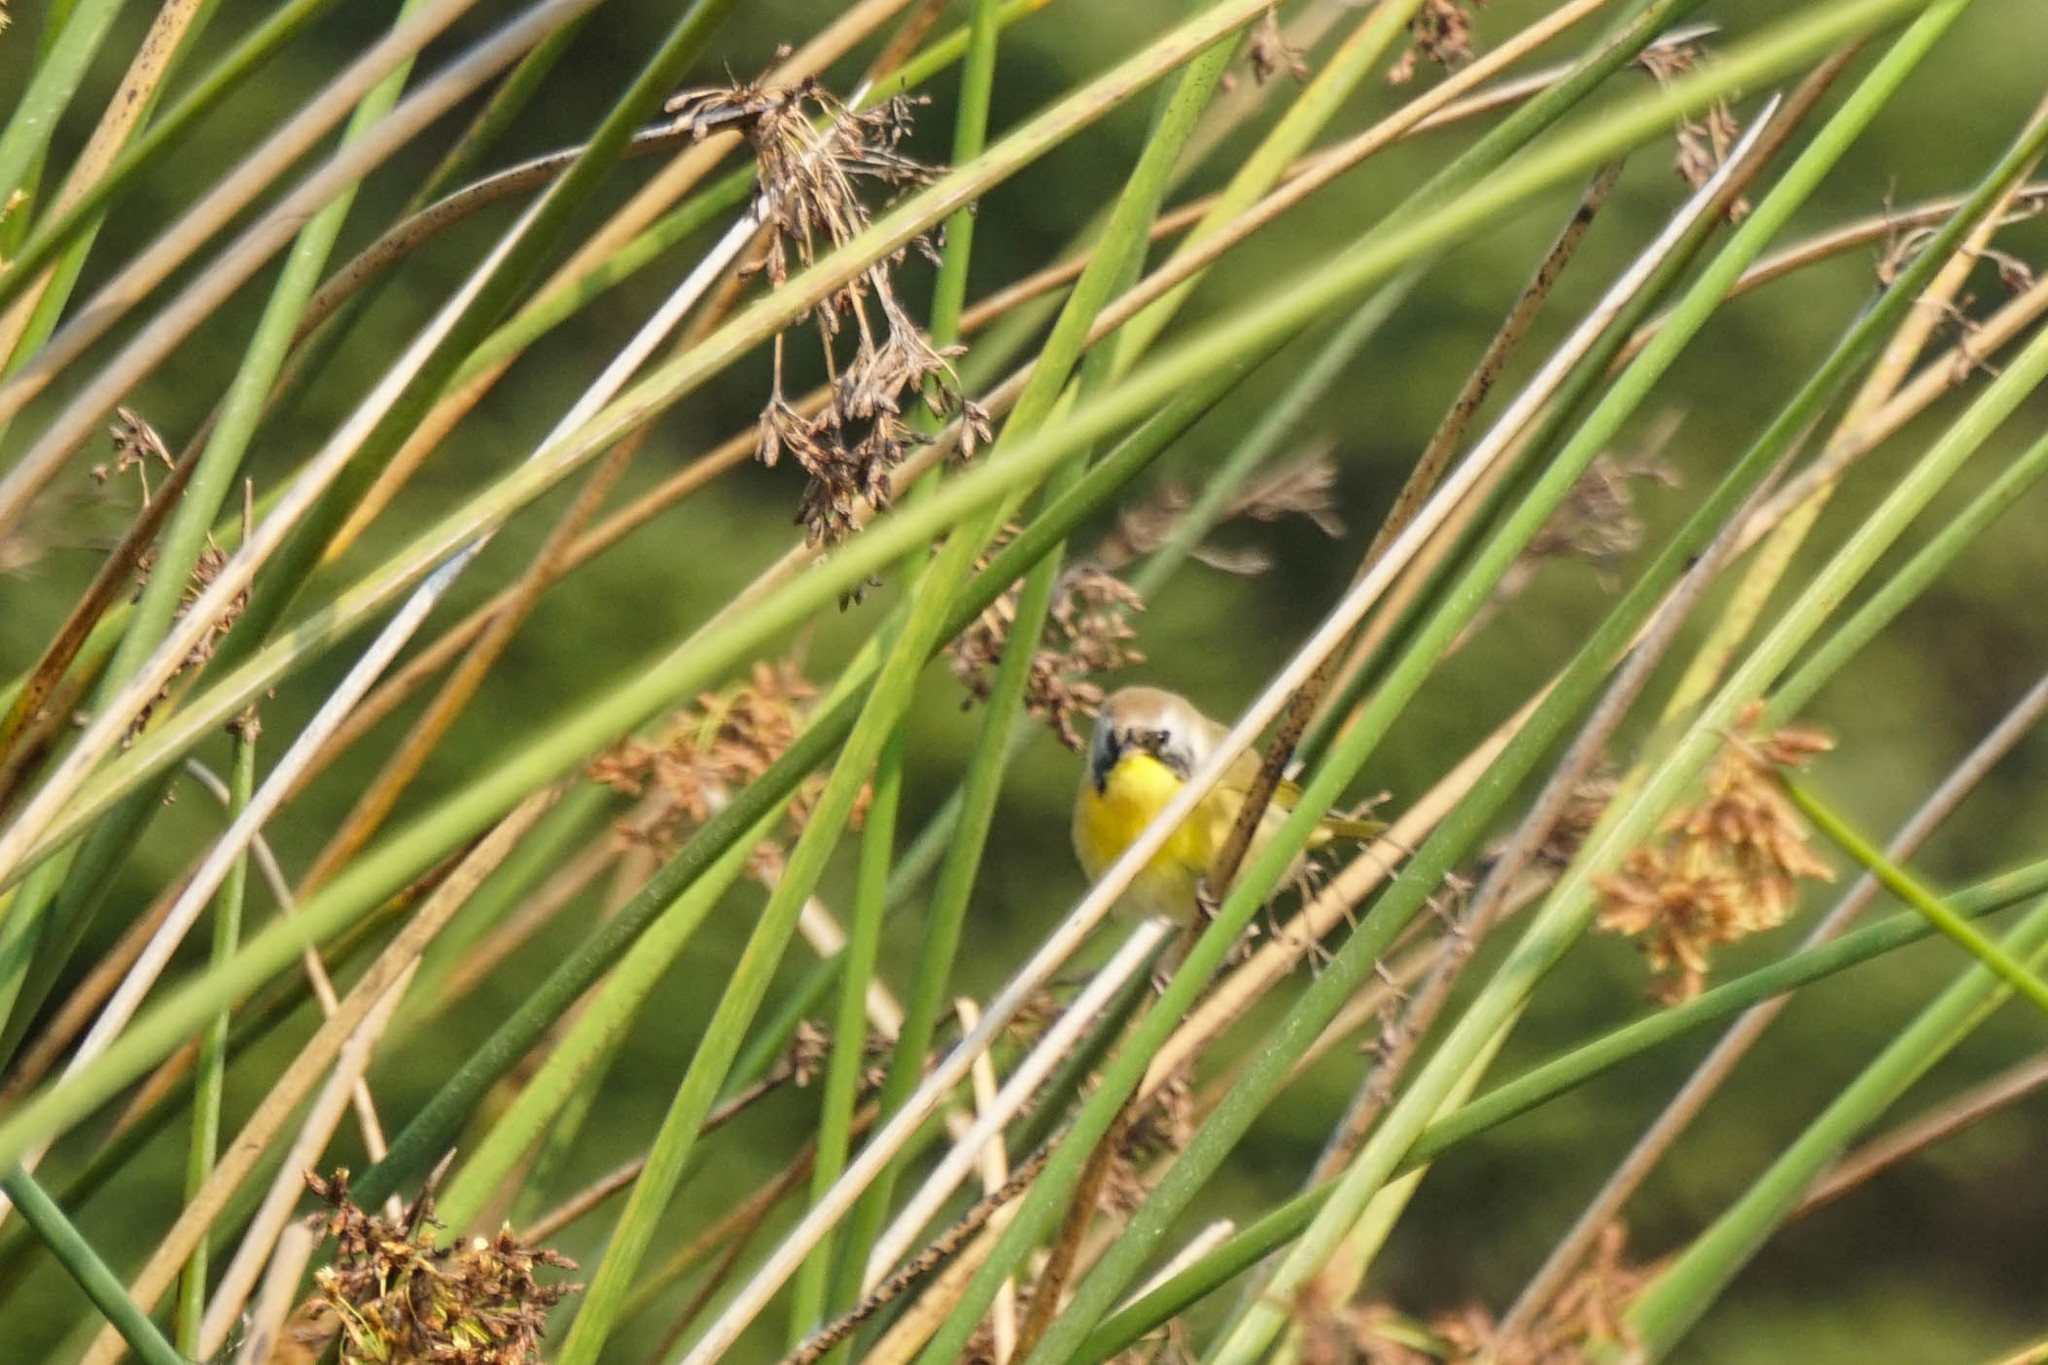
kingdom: Animalia
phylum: Chordata
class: Aves
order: Passeriformes
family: Parulidae
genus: Geothlypis
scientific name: Geothlypis trichas
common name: Common yellowthroat
